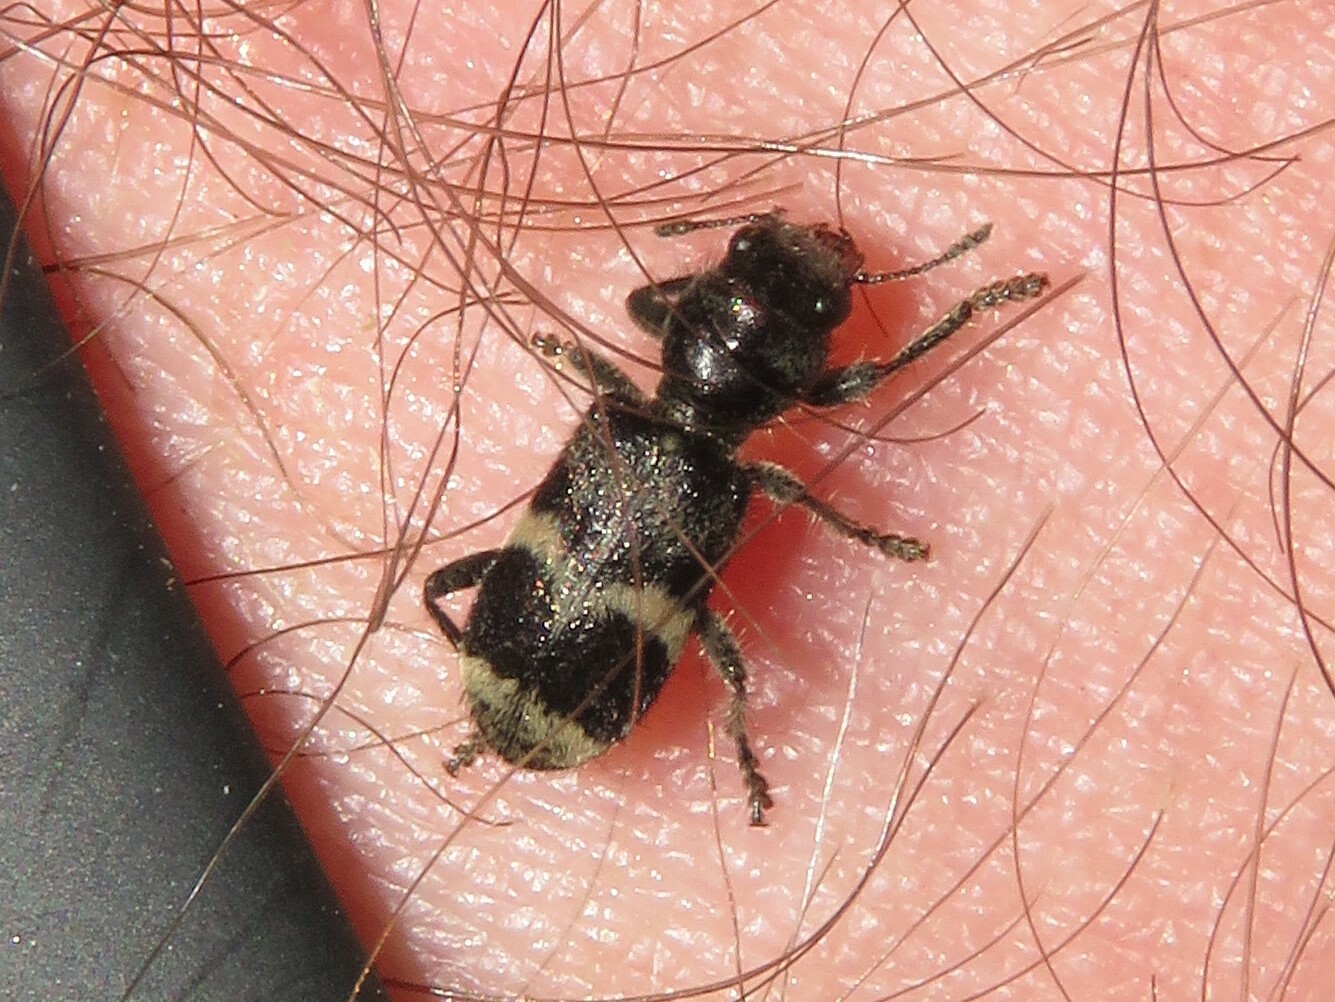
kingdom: Animalia
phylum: Arthropoda
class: Insecta
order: Coleoptera
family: Cleridae
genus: Enoclerus
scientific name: Enoclerus nigripes
